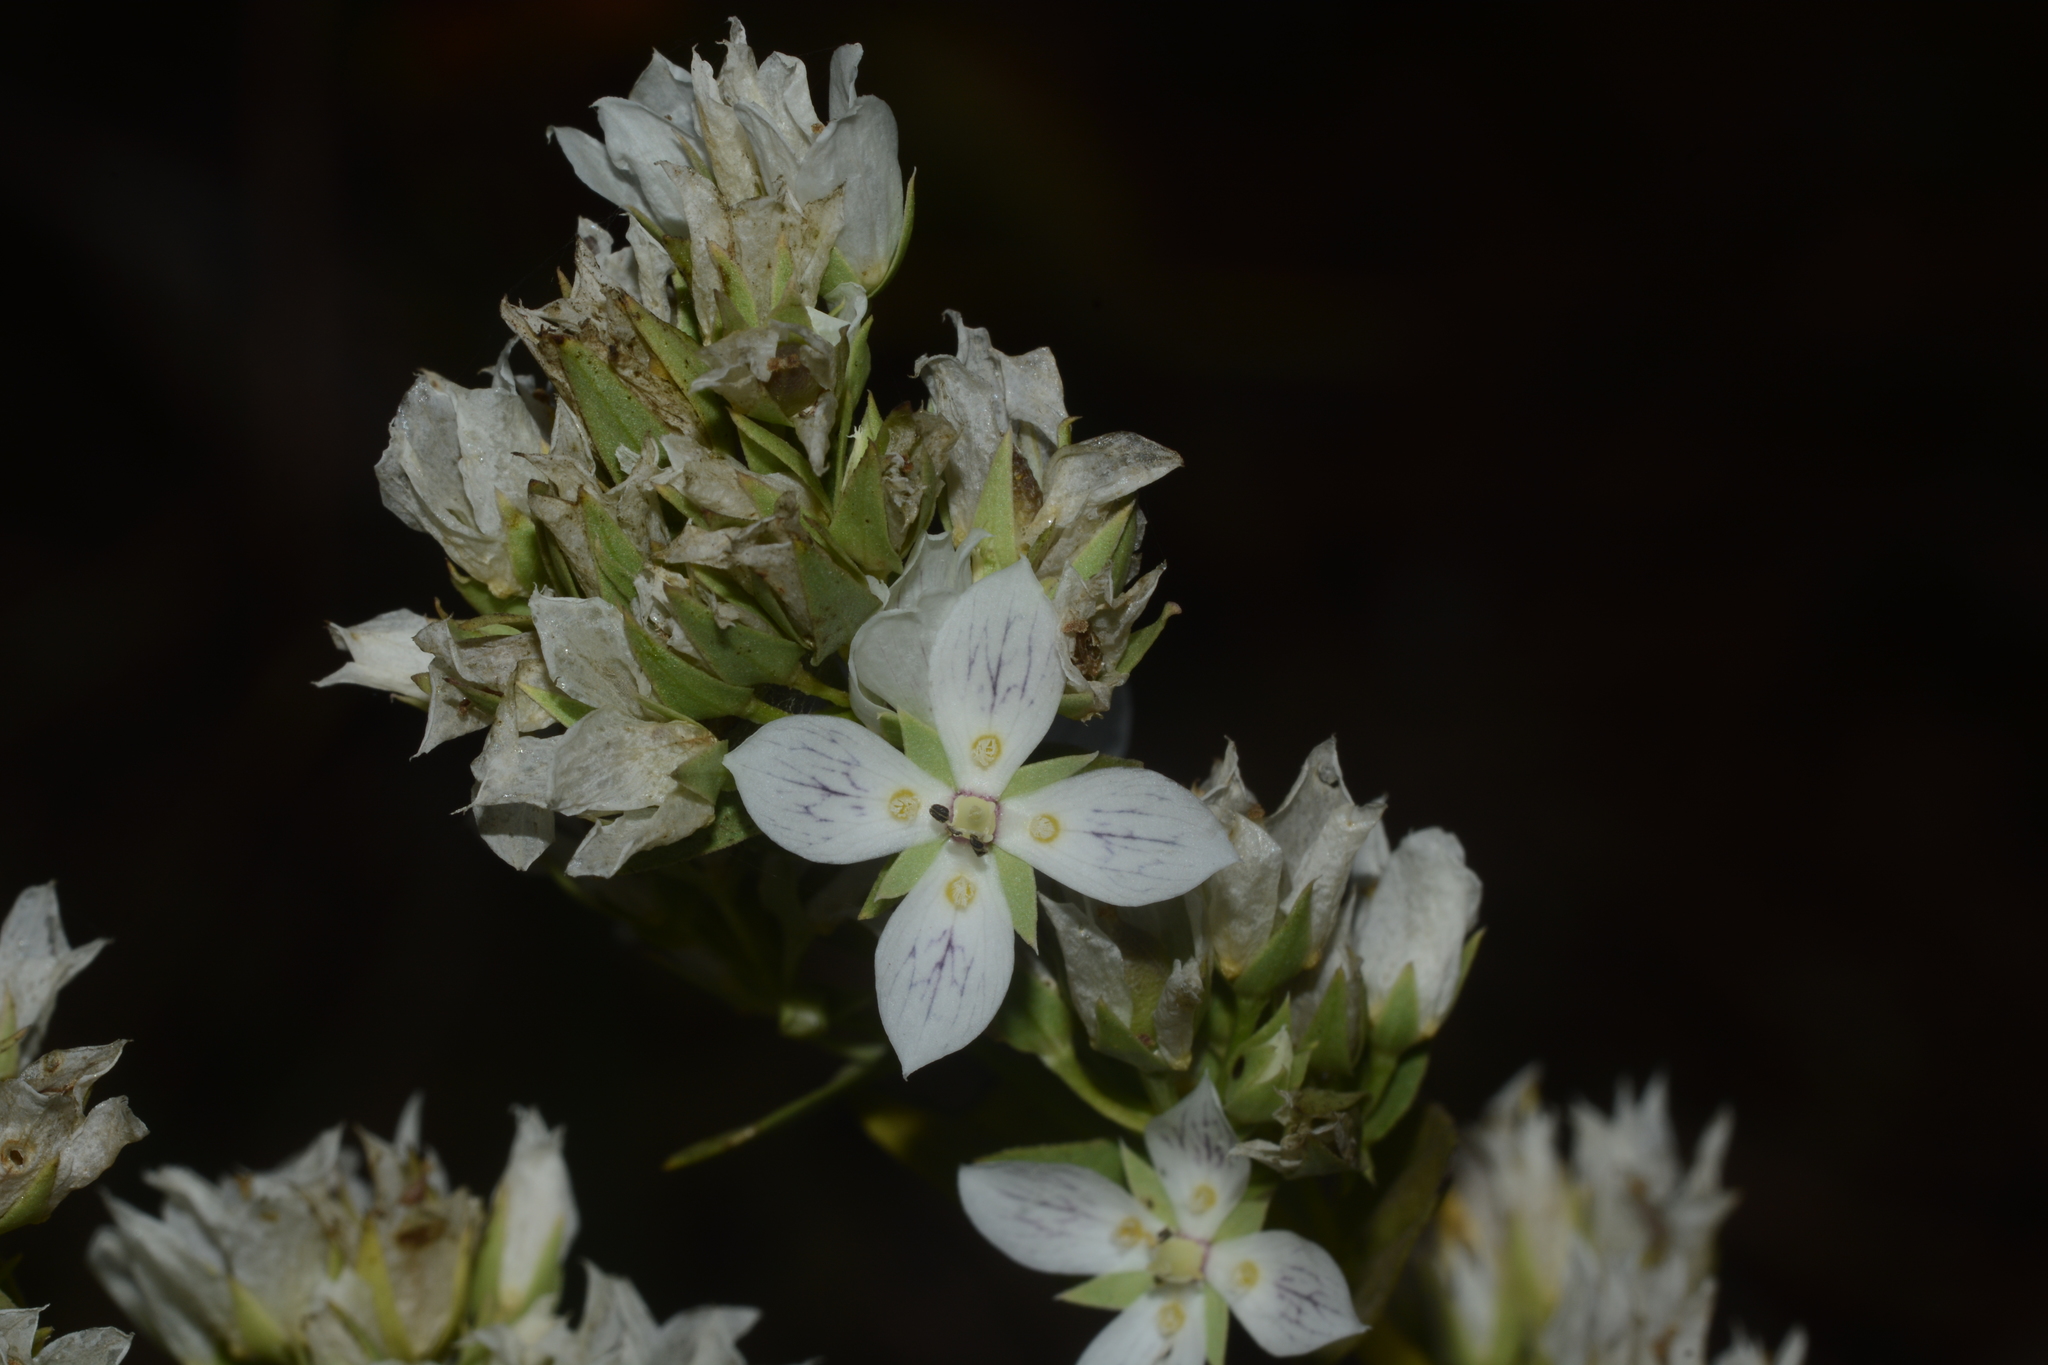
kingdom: Plantae
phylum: Tracheophyta
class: Magnoliopsida
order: Gentianales
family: Gentianaceae
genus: Swertia
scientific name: Swertia densifolia
